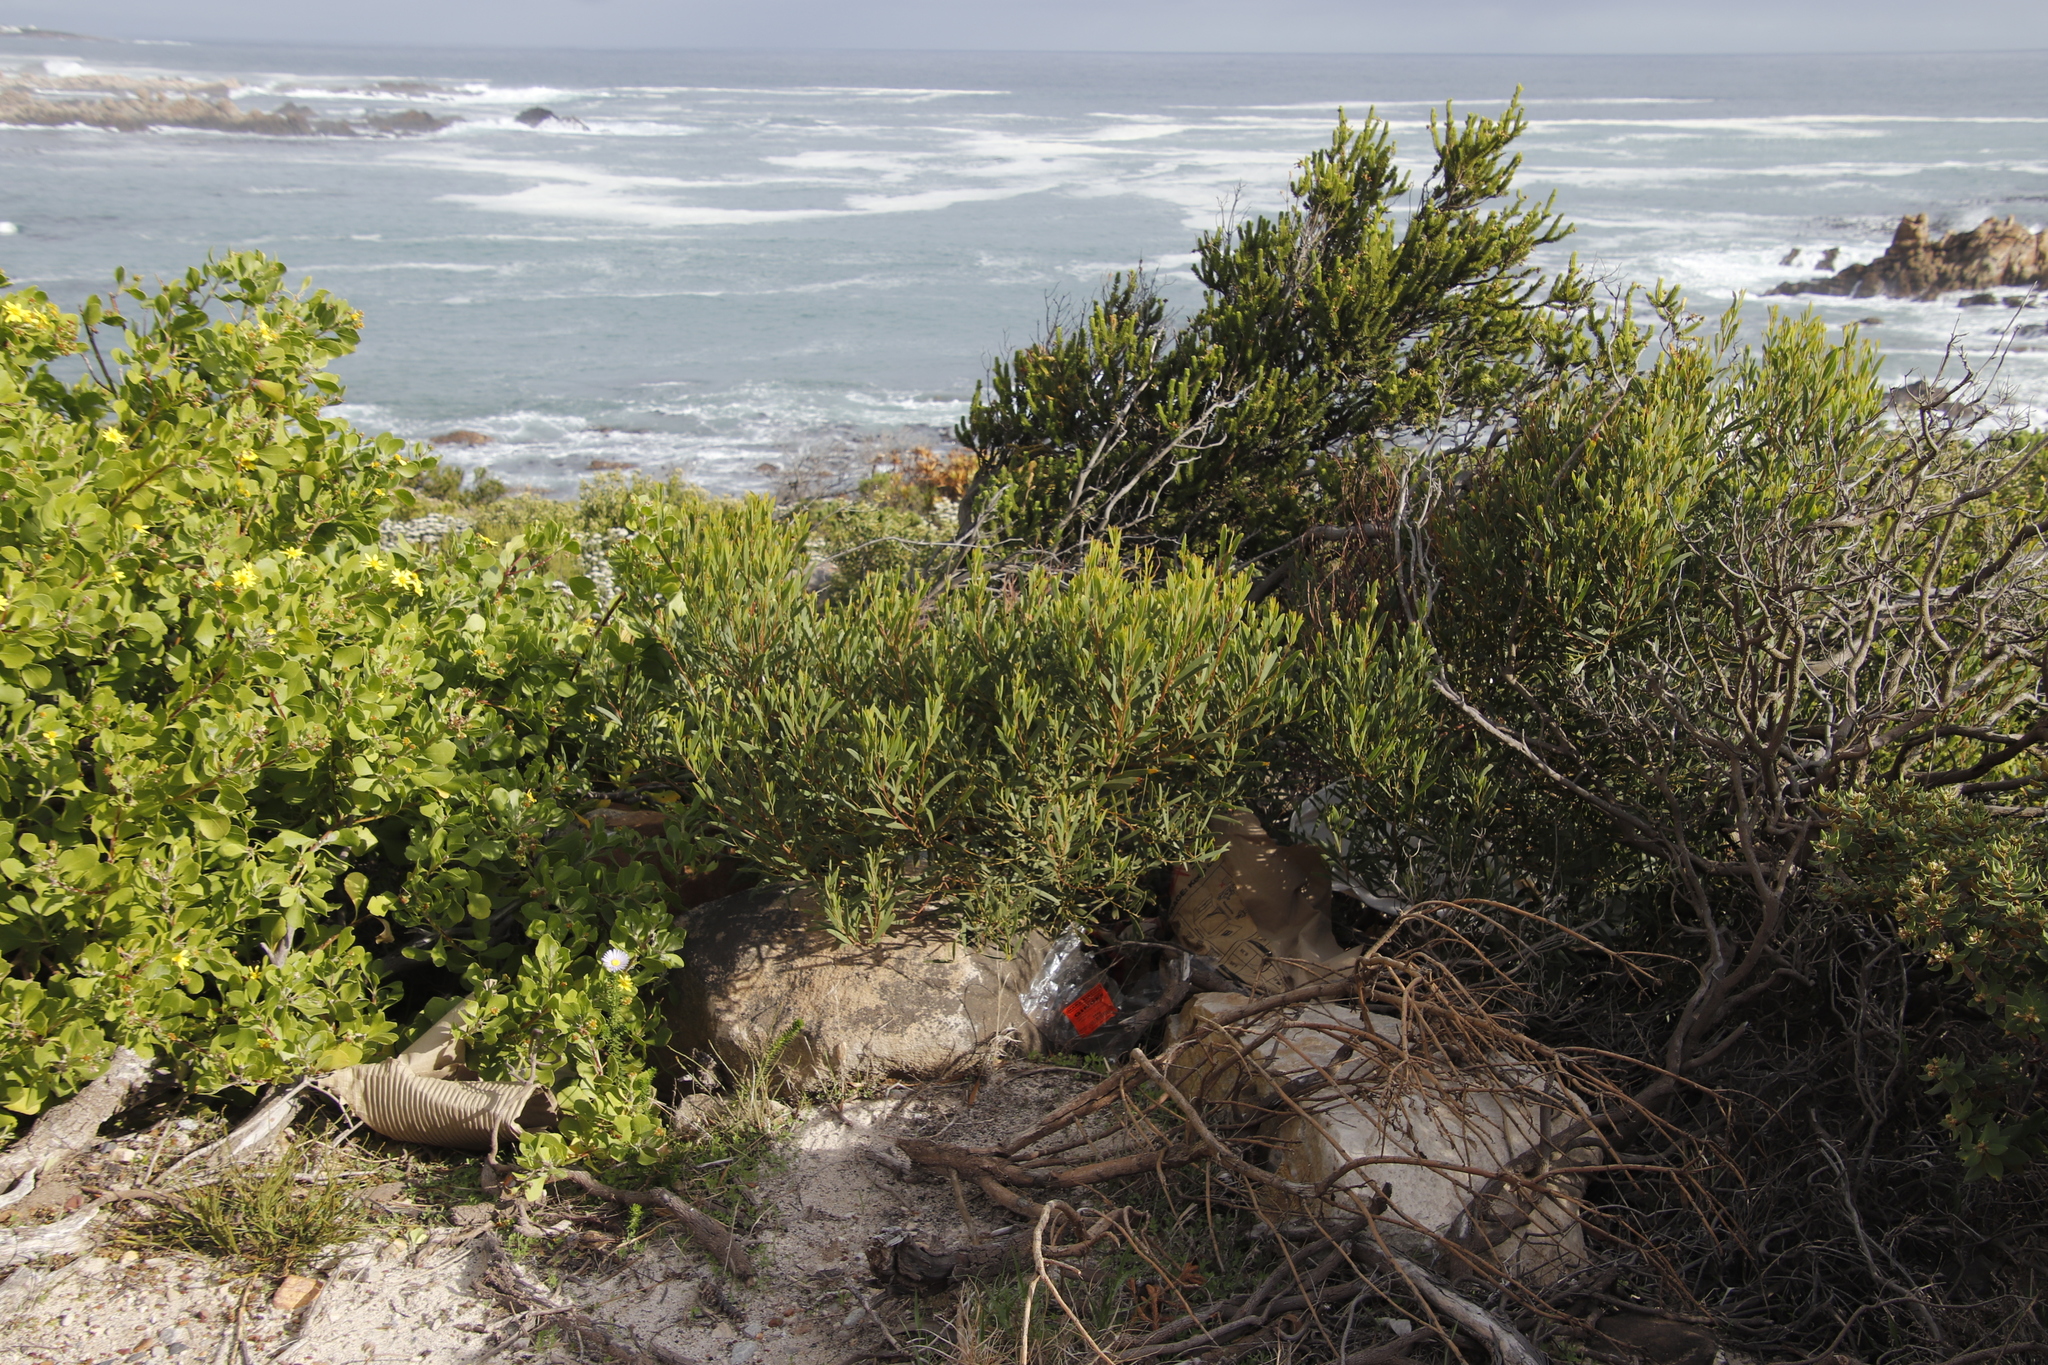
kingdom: Plantae
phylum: Tracheophyta
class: Magnoliopsida
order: Fabales
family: Fabaceae
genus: Acacia
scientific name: Acacia cyclops
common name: Coastal wattle
